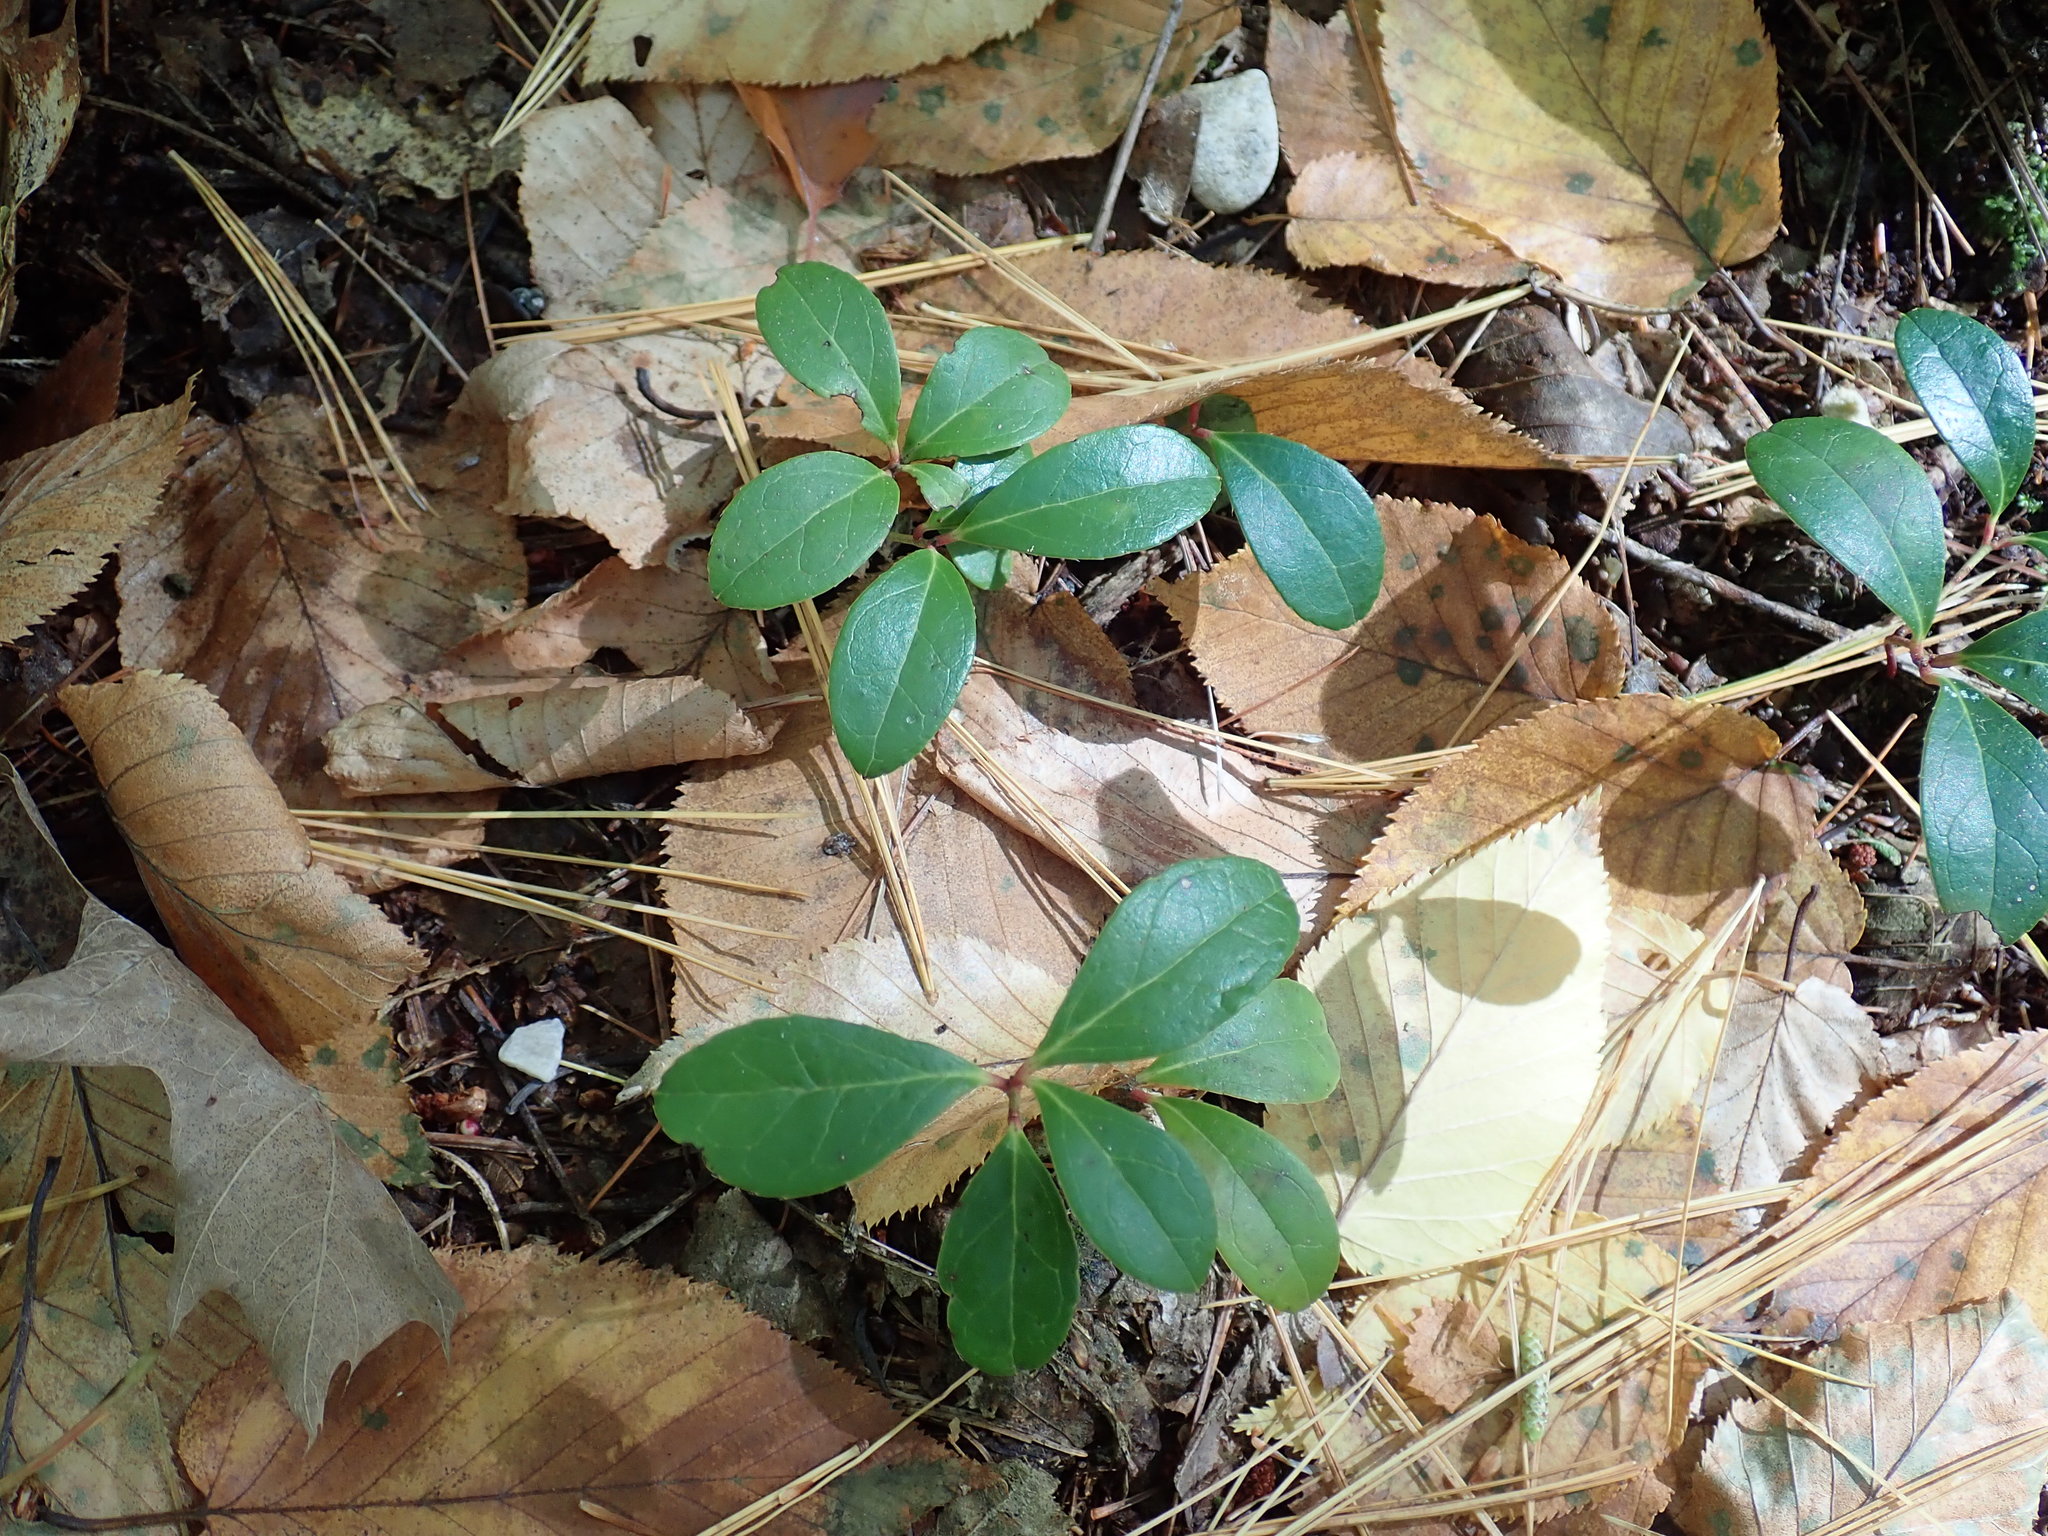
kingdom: Plantae
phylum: Tracheophyta
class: Magnoliopsida
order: Ericales
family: Ericaceae
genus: Gaultheria
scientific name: Gaultheria procumbens
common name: Checkerberry
